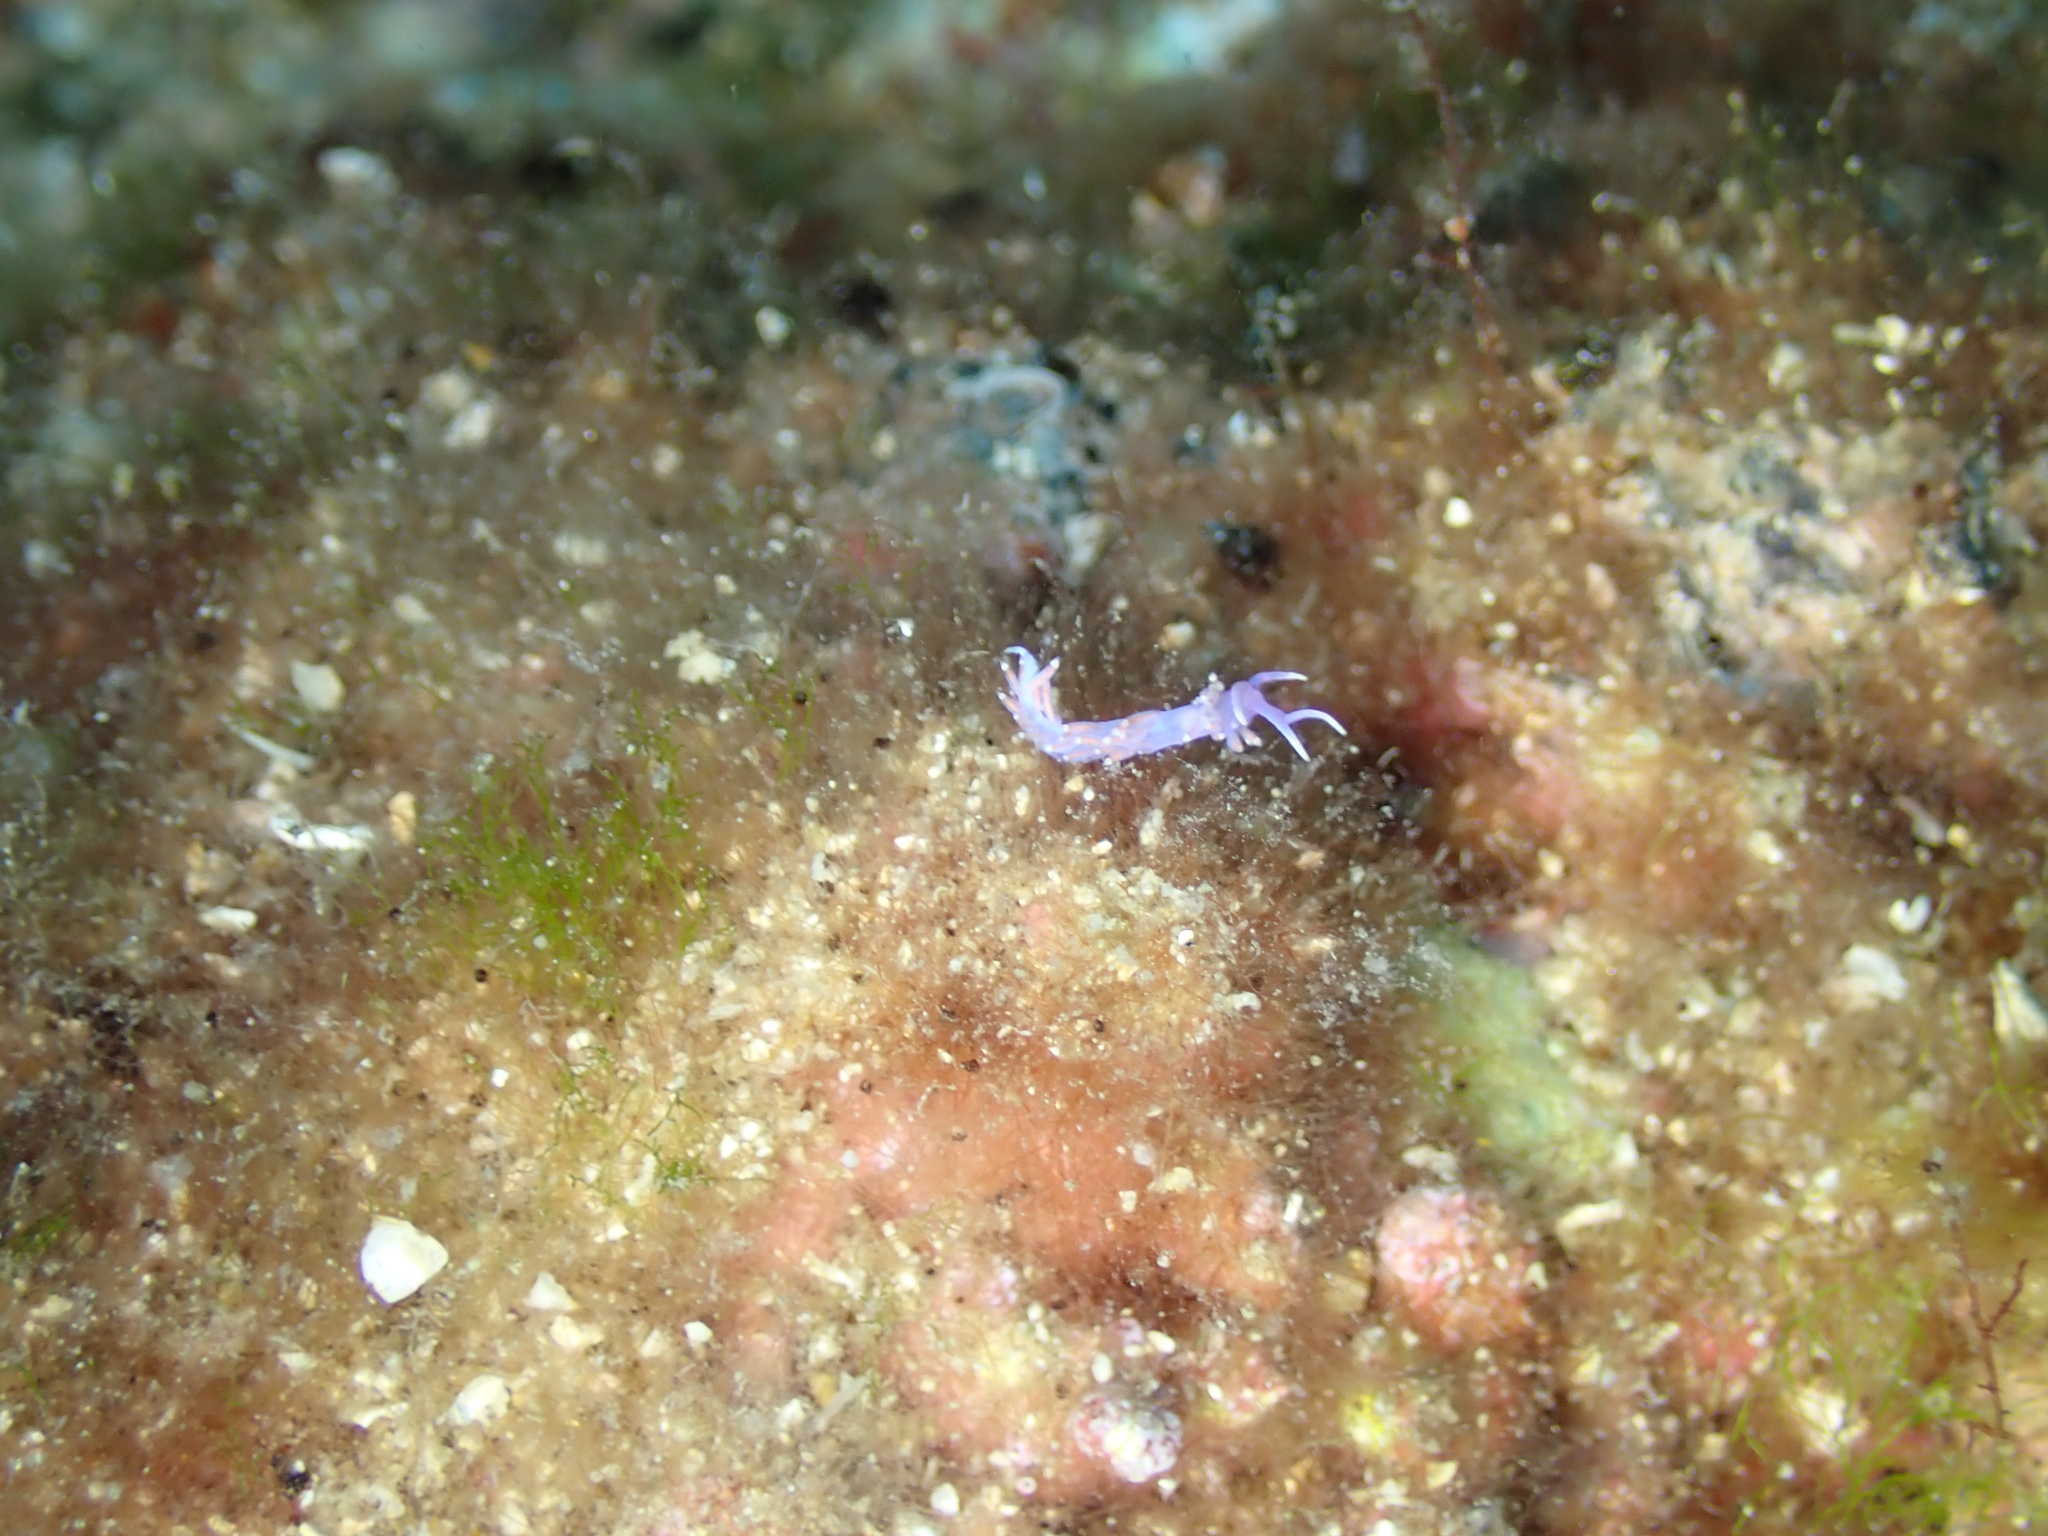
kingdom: Animalia
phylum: Mollusca
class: Gastropoda
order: Nudibranchia
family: Flabellinidae
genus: Edmundsella
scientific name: Edmundsella pedata
